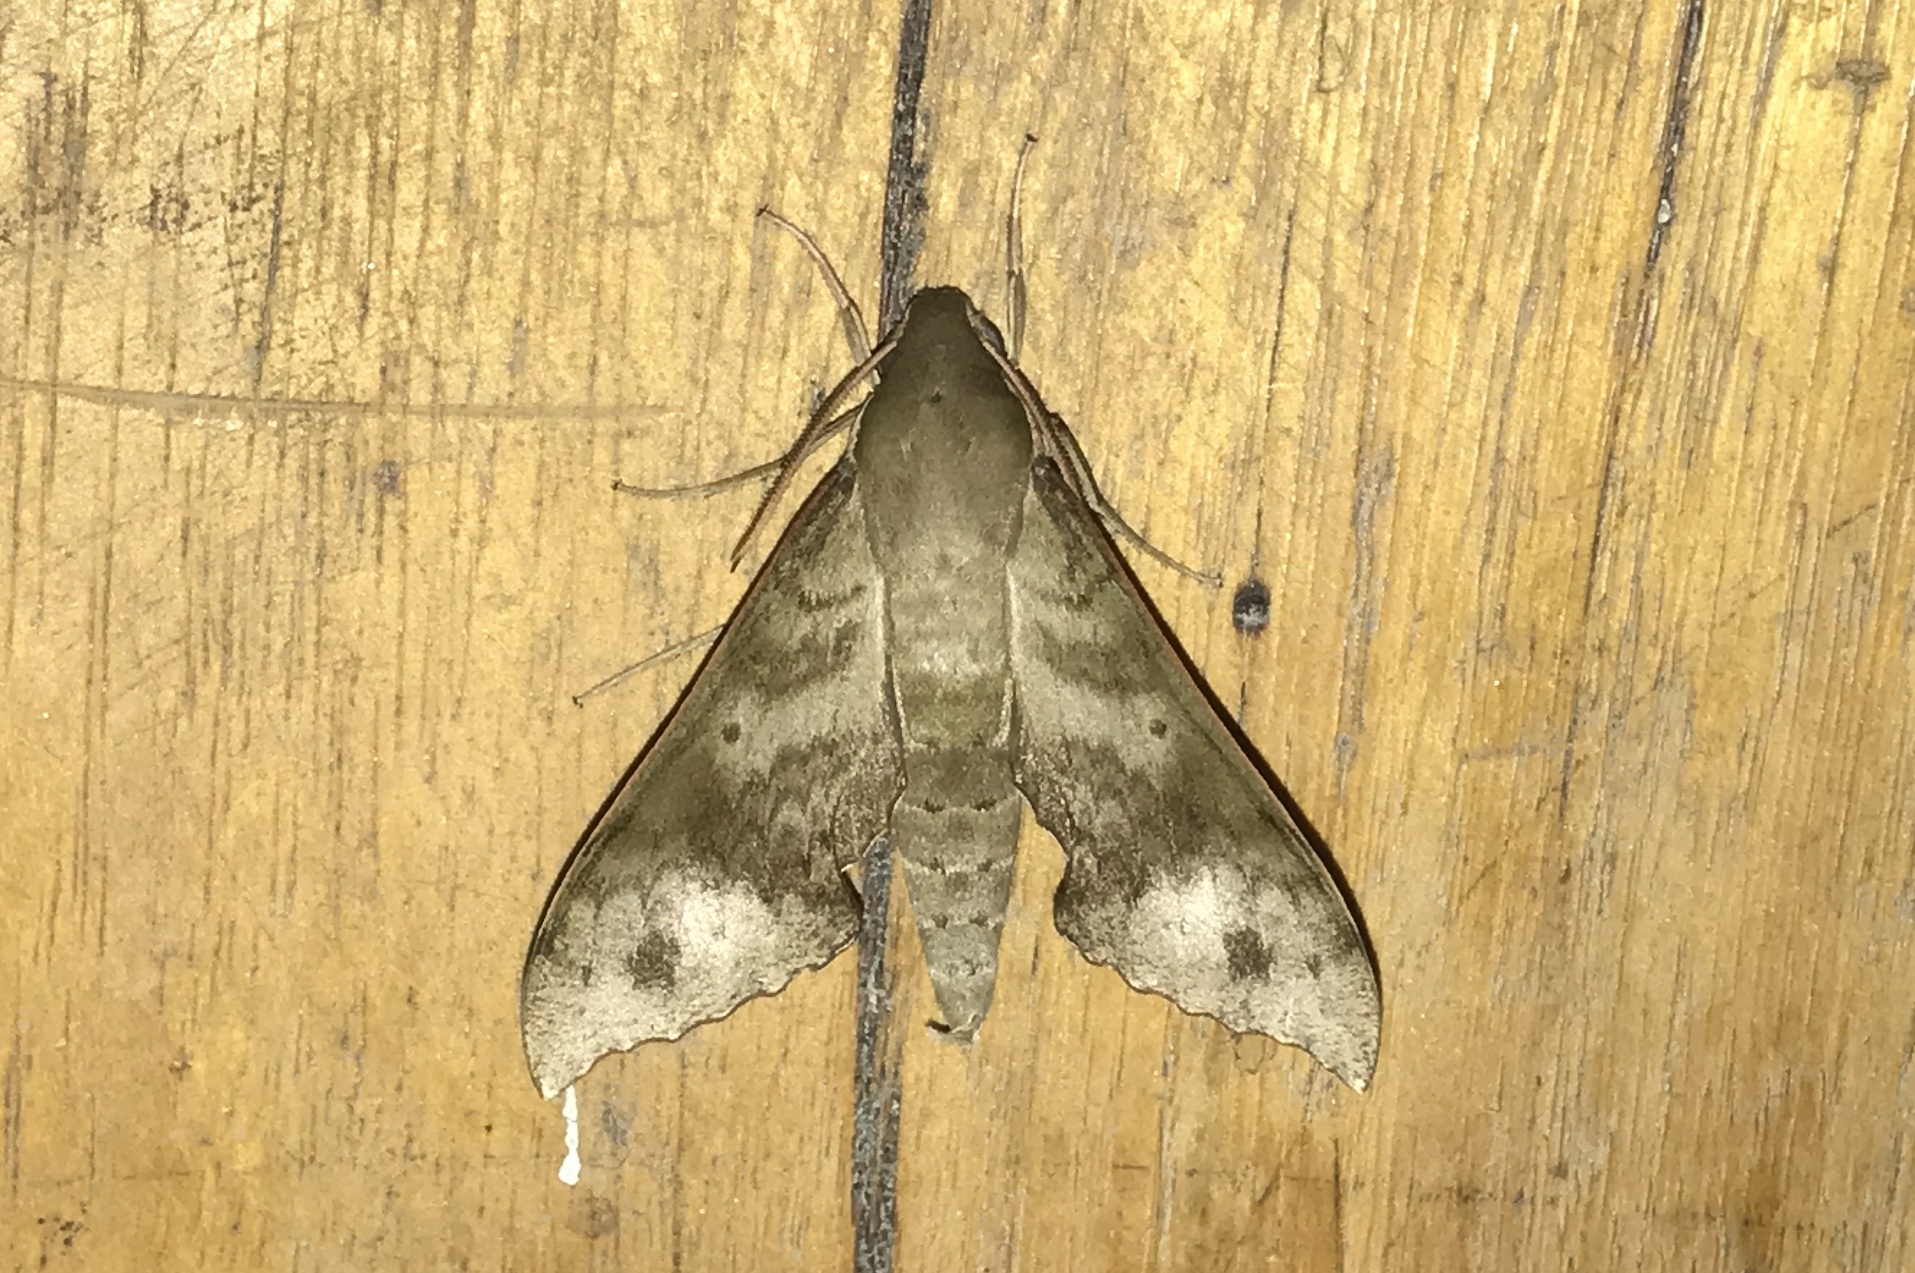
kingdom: Animalia
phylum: Arthropoda
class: Insecta
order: Lepidoptera
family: Sphingidae
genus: Xylophanes
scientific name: Xylophanes germen
